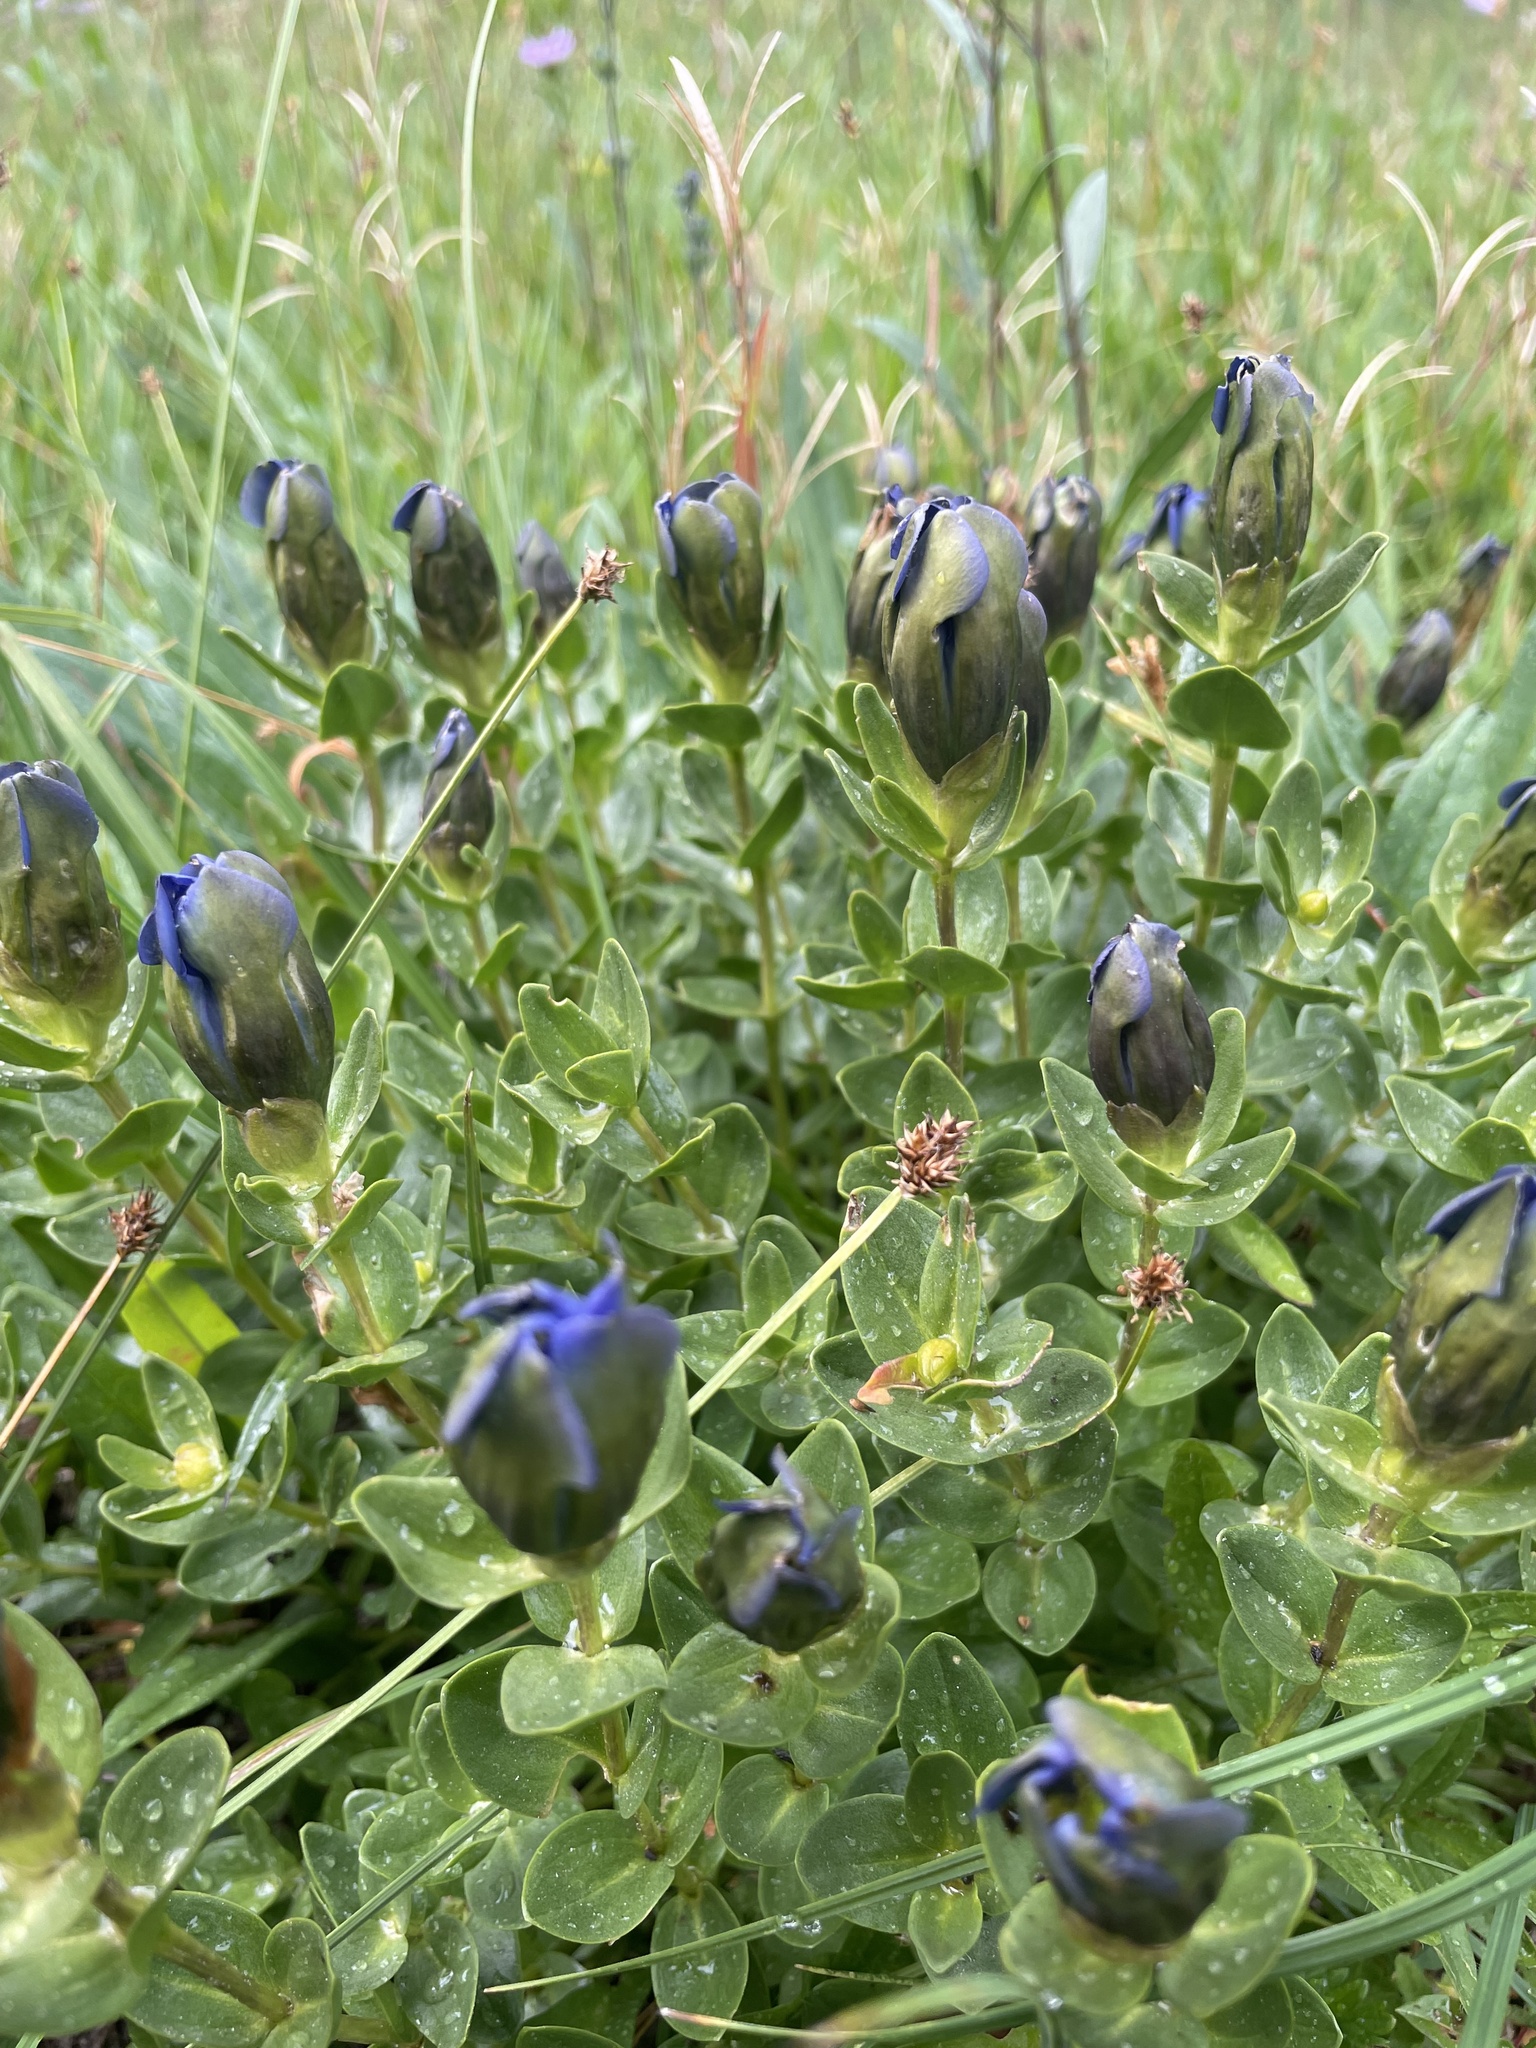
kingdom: Plantae
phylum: Tracheophyta
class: Magnoliopsida
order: Gentianales
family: Gentianaceae
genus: Gentiana
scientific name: Gentiana calycosa
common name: Rainier pleated gentian
